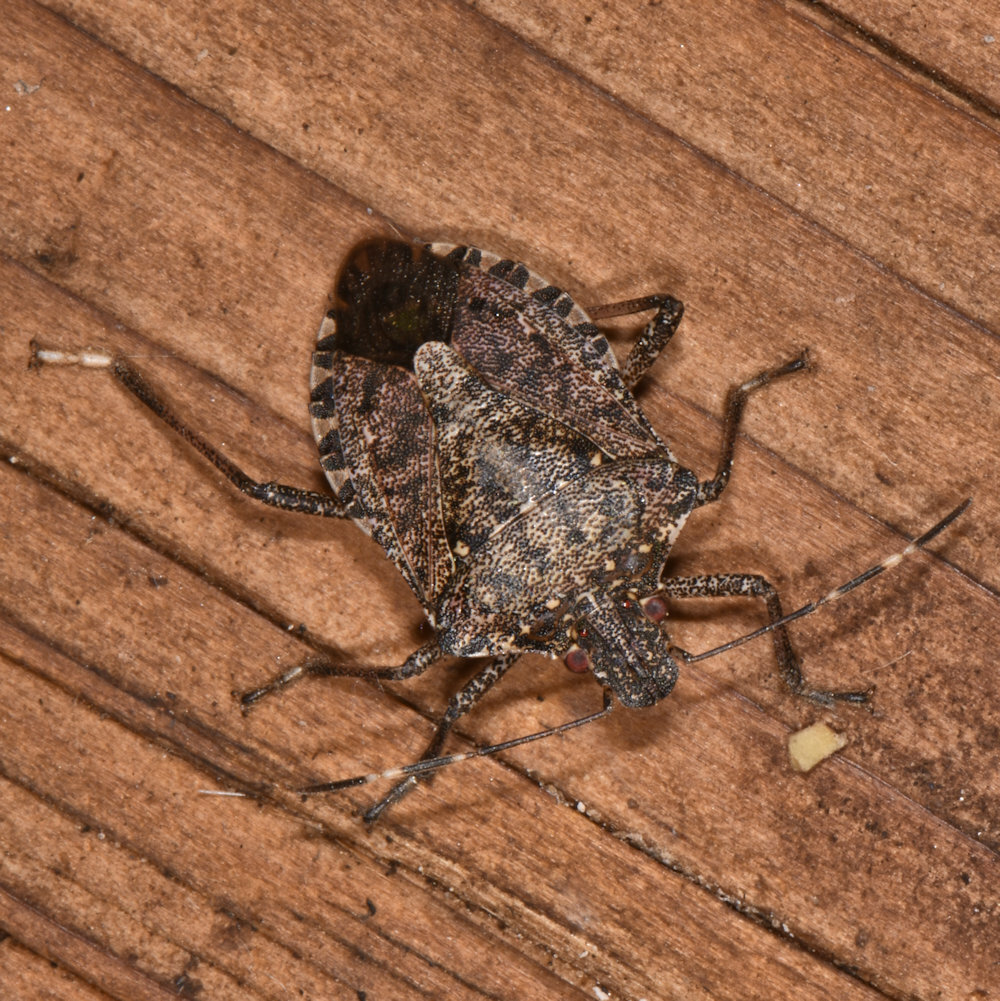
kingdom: Animalia
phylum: Arthropoda
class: Insecta
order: Hemiptera
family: Pentatomidae
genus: Halyomorpha
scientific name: Halyomorpha halys
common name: Brown marmorated stink bug
